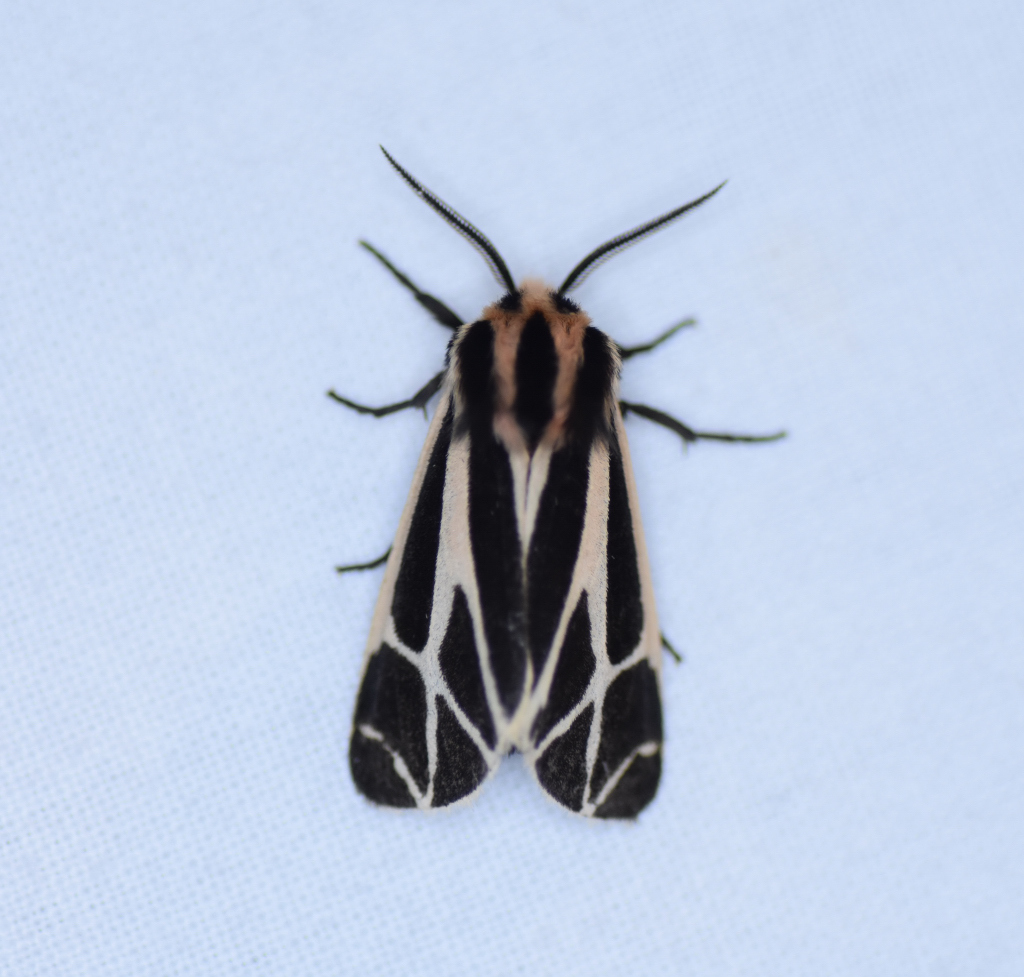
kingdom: Animalia
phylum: Arthropoda
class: Insecta
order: Lepidoptera
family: Erebidae
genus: Apantesis
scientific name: Apantesis phalerata
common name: Harnessed tiger moth
